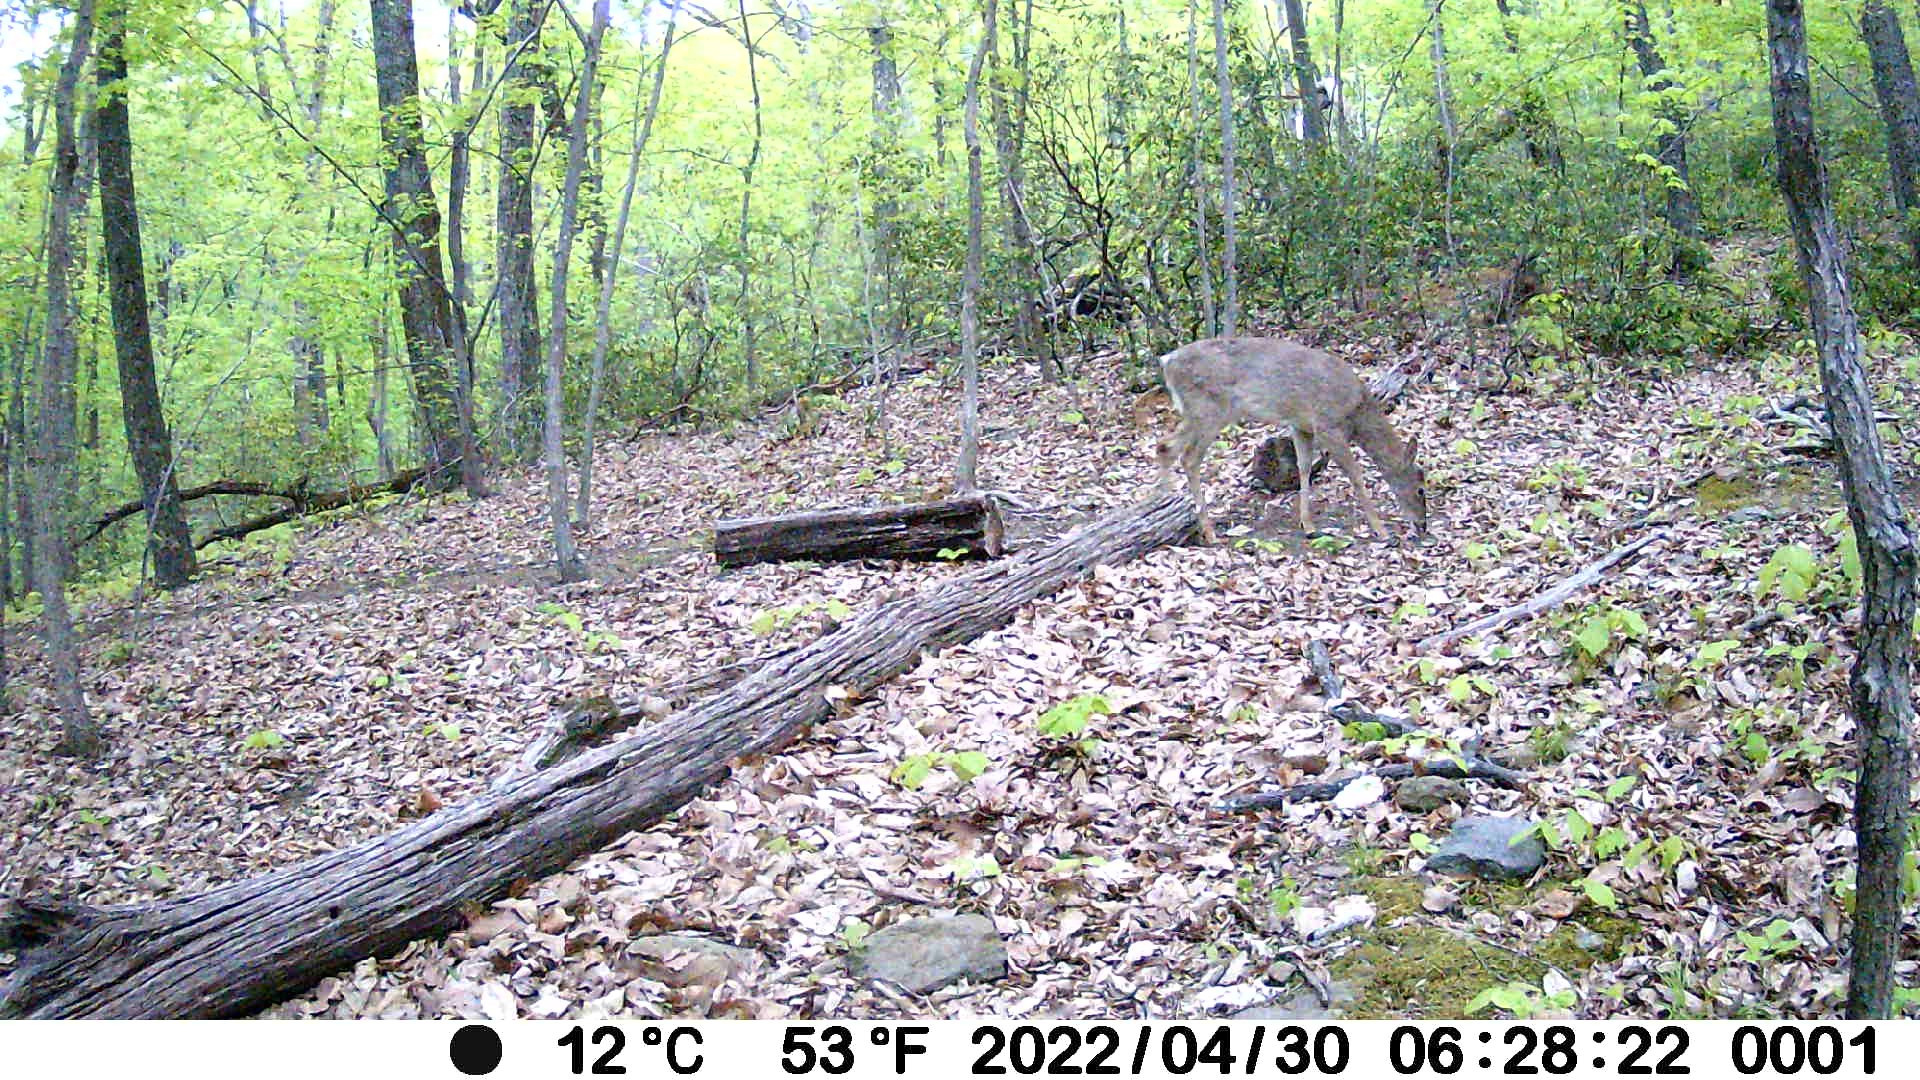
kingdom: Animalia
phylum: Chordata
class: Mammalia
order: Artiodactyla
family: Cervidae
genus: Odocoileus
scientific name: Odocoileus virginianus
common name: White-tailed deer
